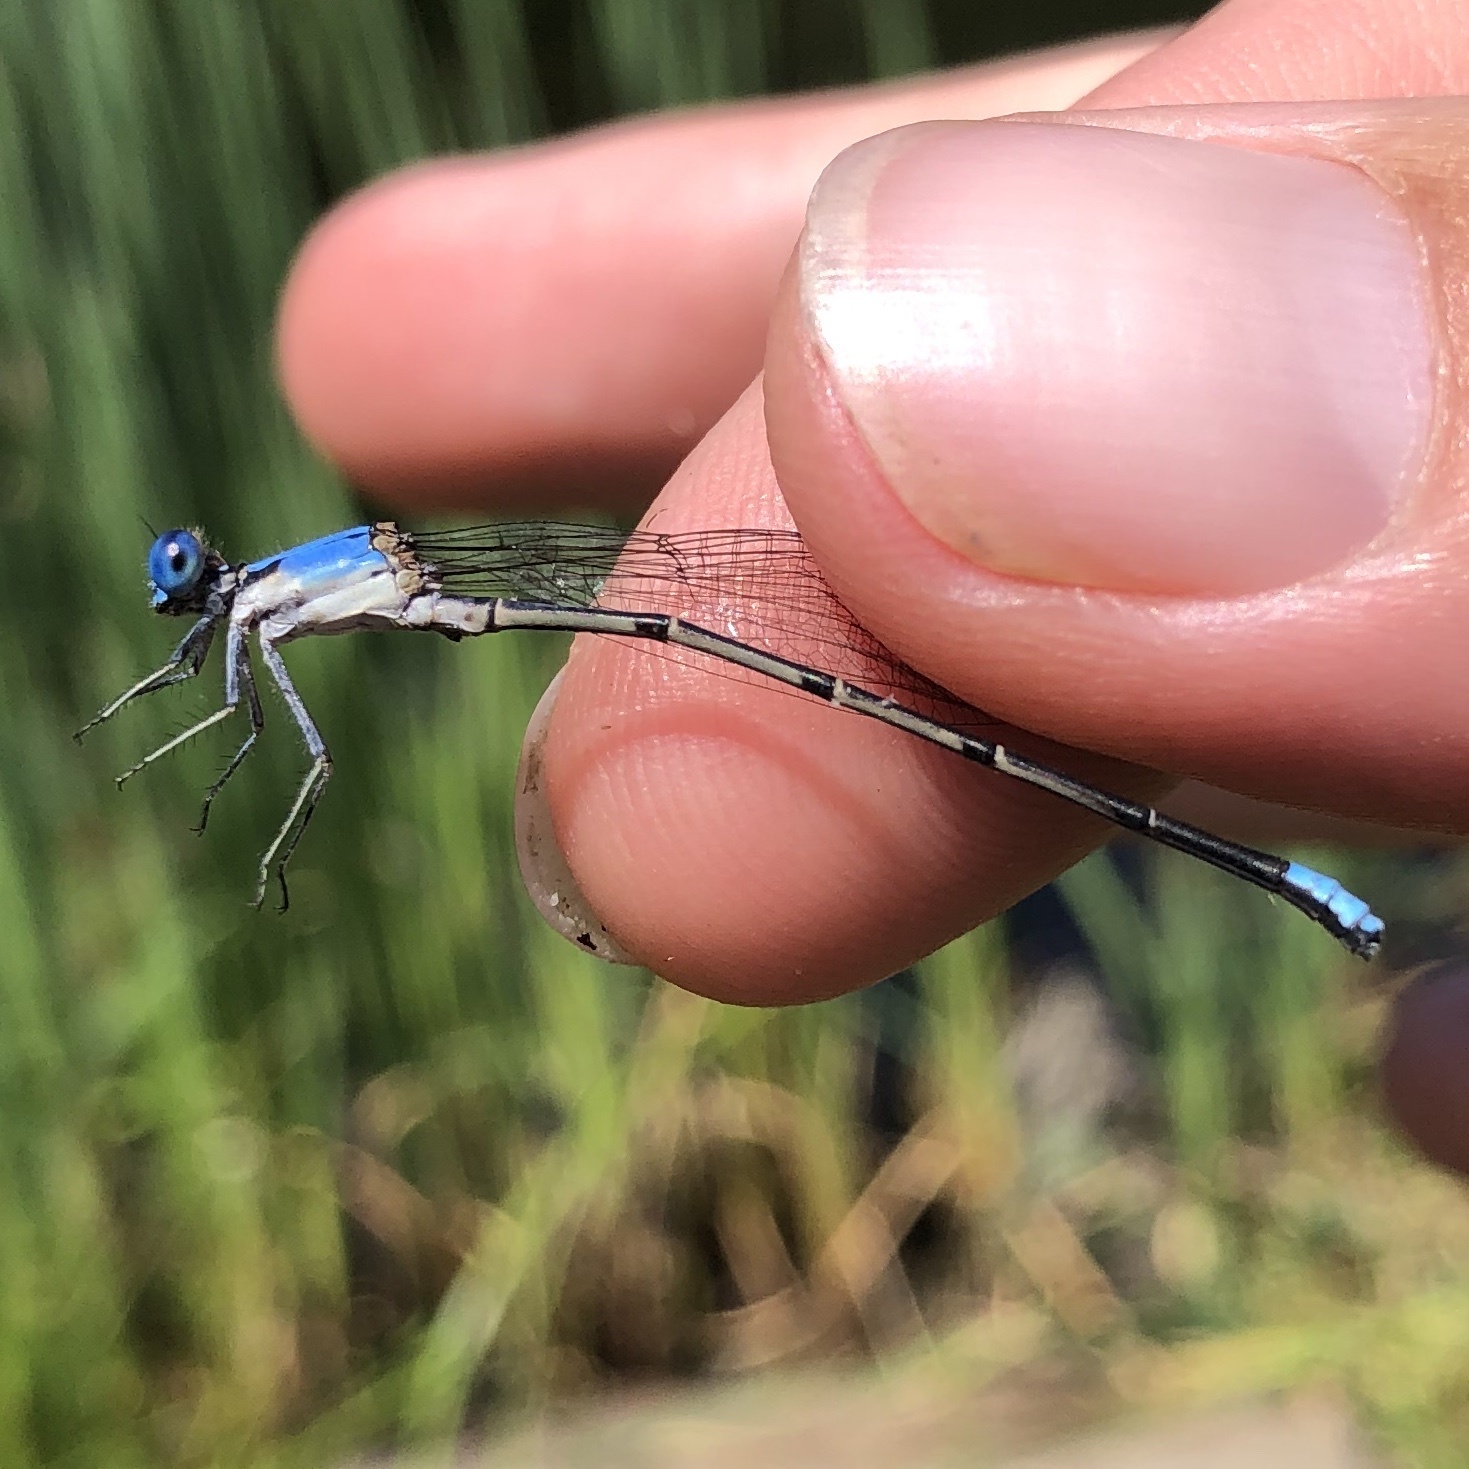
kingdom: Animalia
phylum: Arthropoda
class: Insecta
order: Odonata
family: Coenagrionidae
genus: Argia
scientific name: Argia apicalis
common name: Blue-fronted dancer
